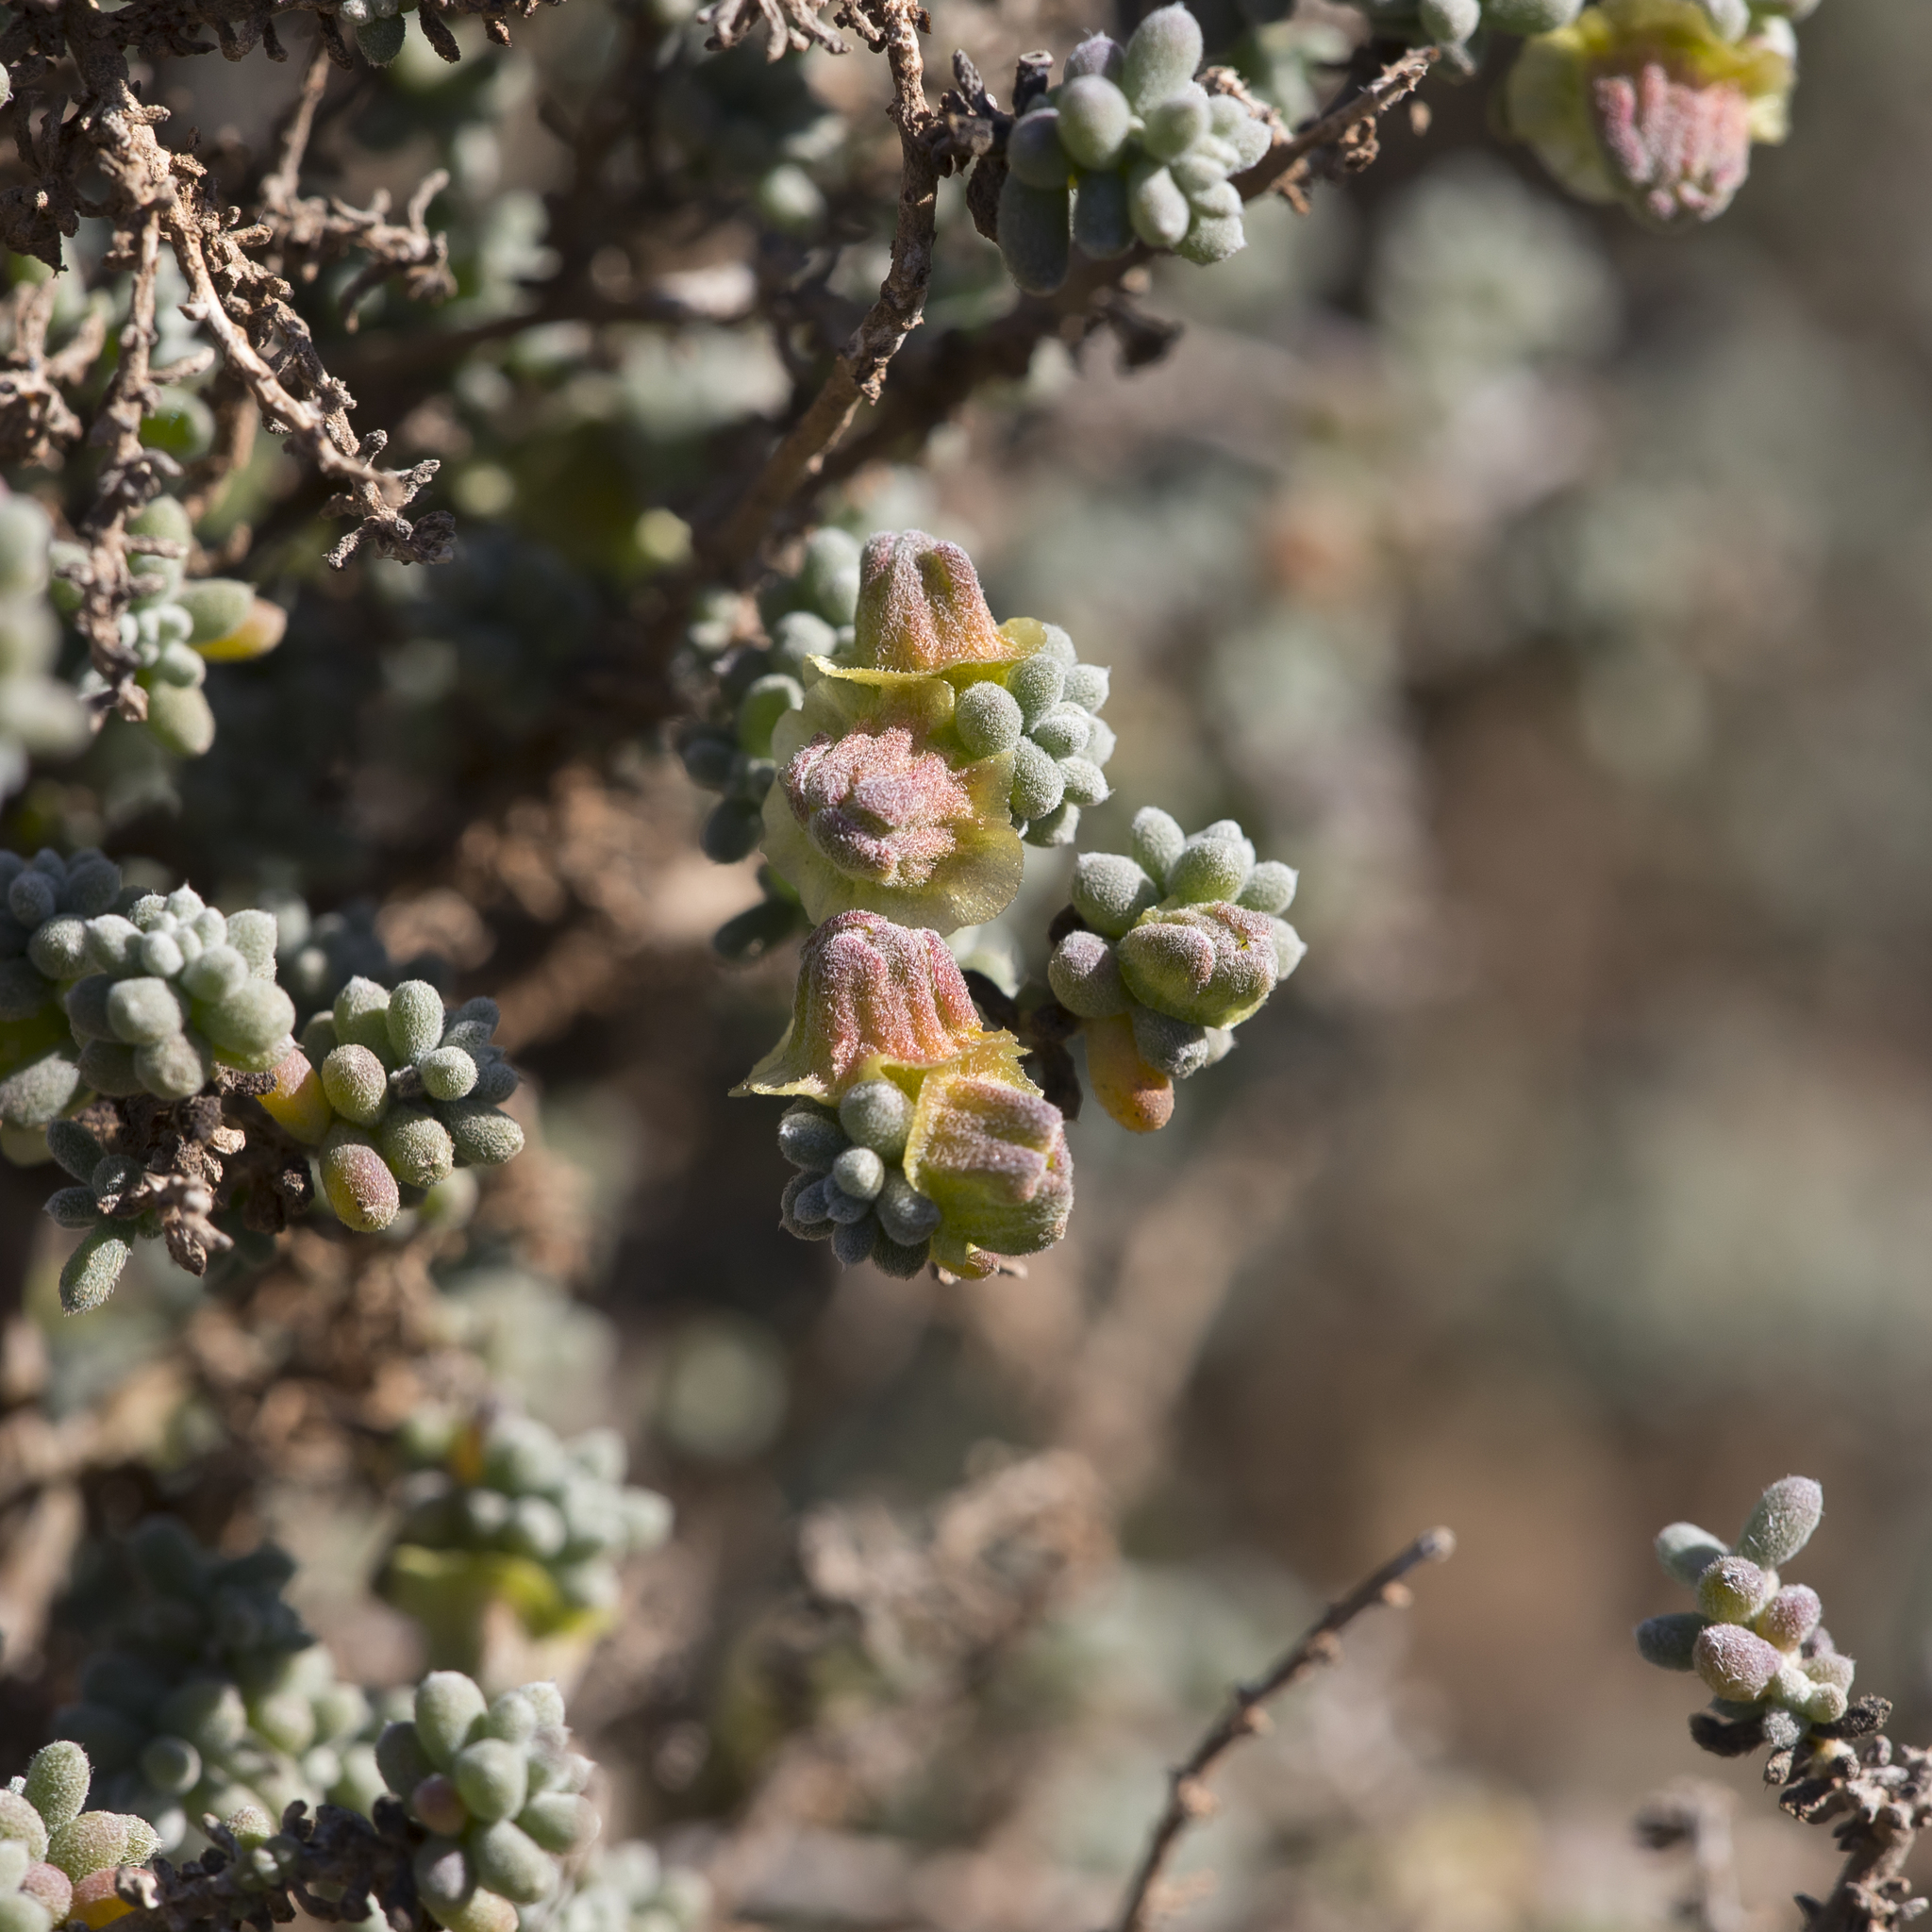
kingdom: Plantae
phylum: Tracheophyta
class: Magnoliopsida
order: Caryophyllales
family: Amaranthaceae
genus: Maireana
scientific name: Maireana pyramidata
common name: Sagobush
